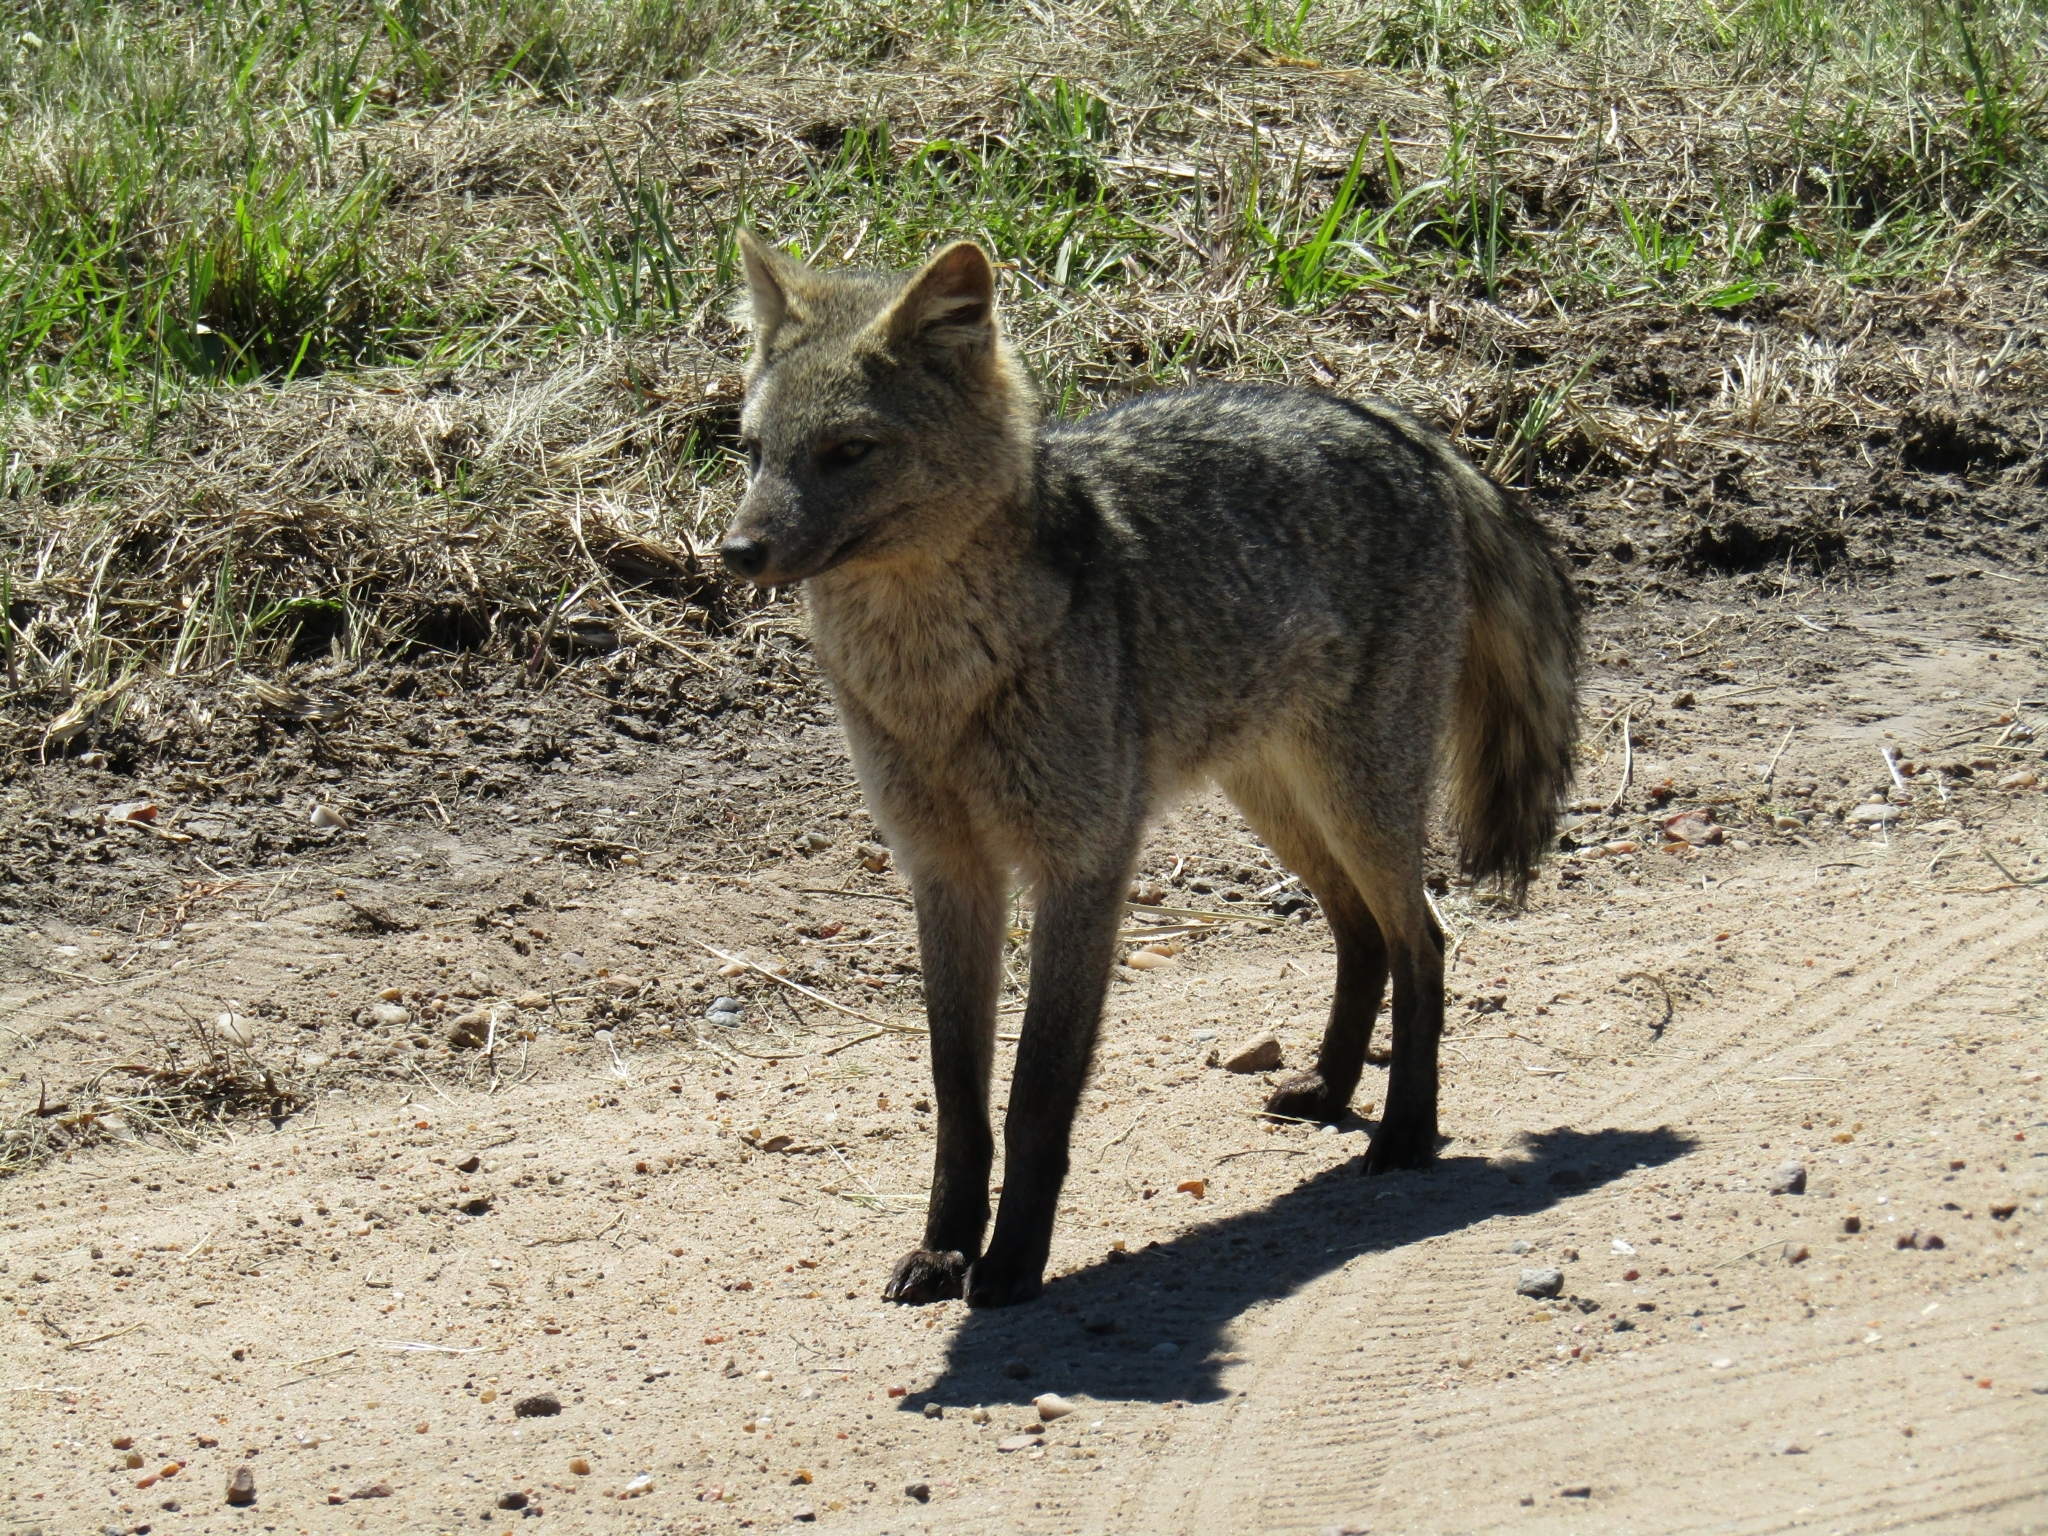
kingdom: Animalia
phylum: Chordata
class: Mammalia
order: Carnivora
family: Canidae
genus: Cerdocyon
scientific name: Cerdocyon thous
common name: Crab-eating fox
